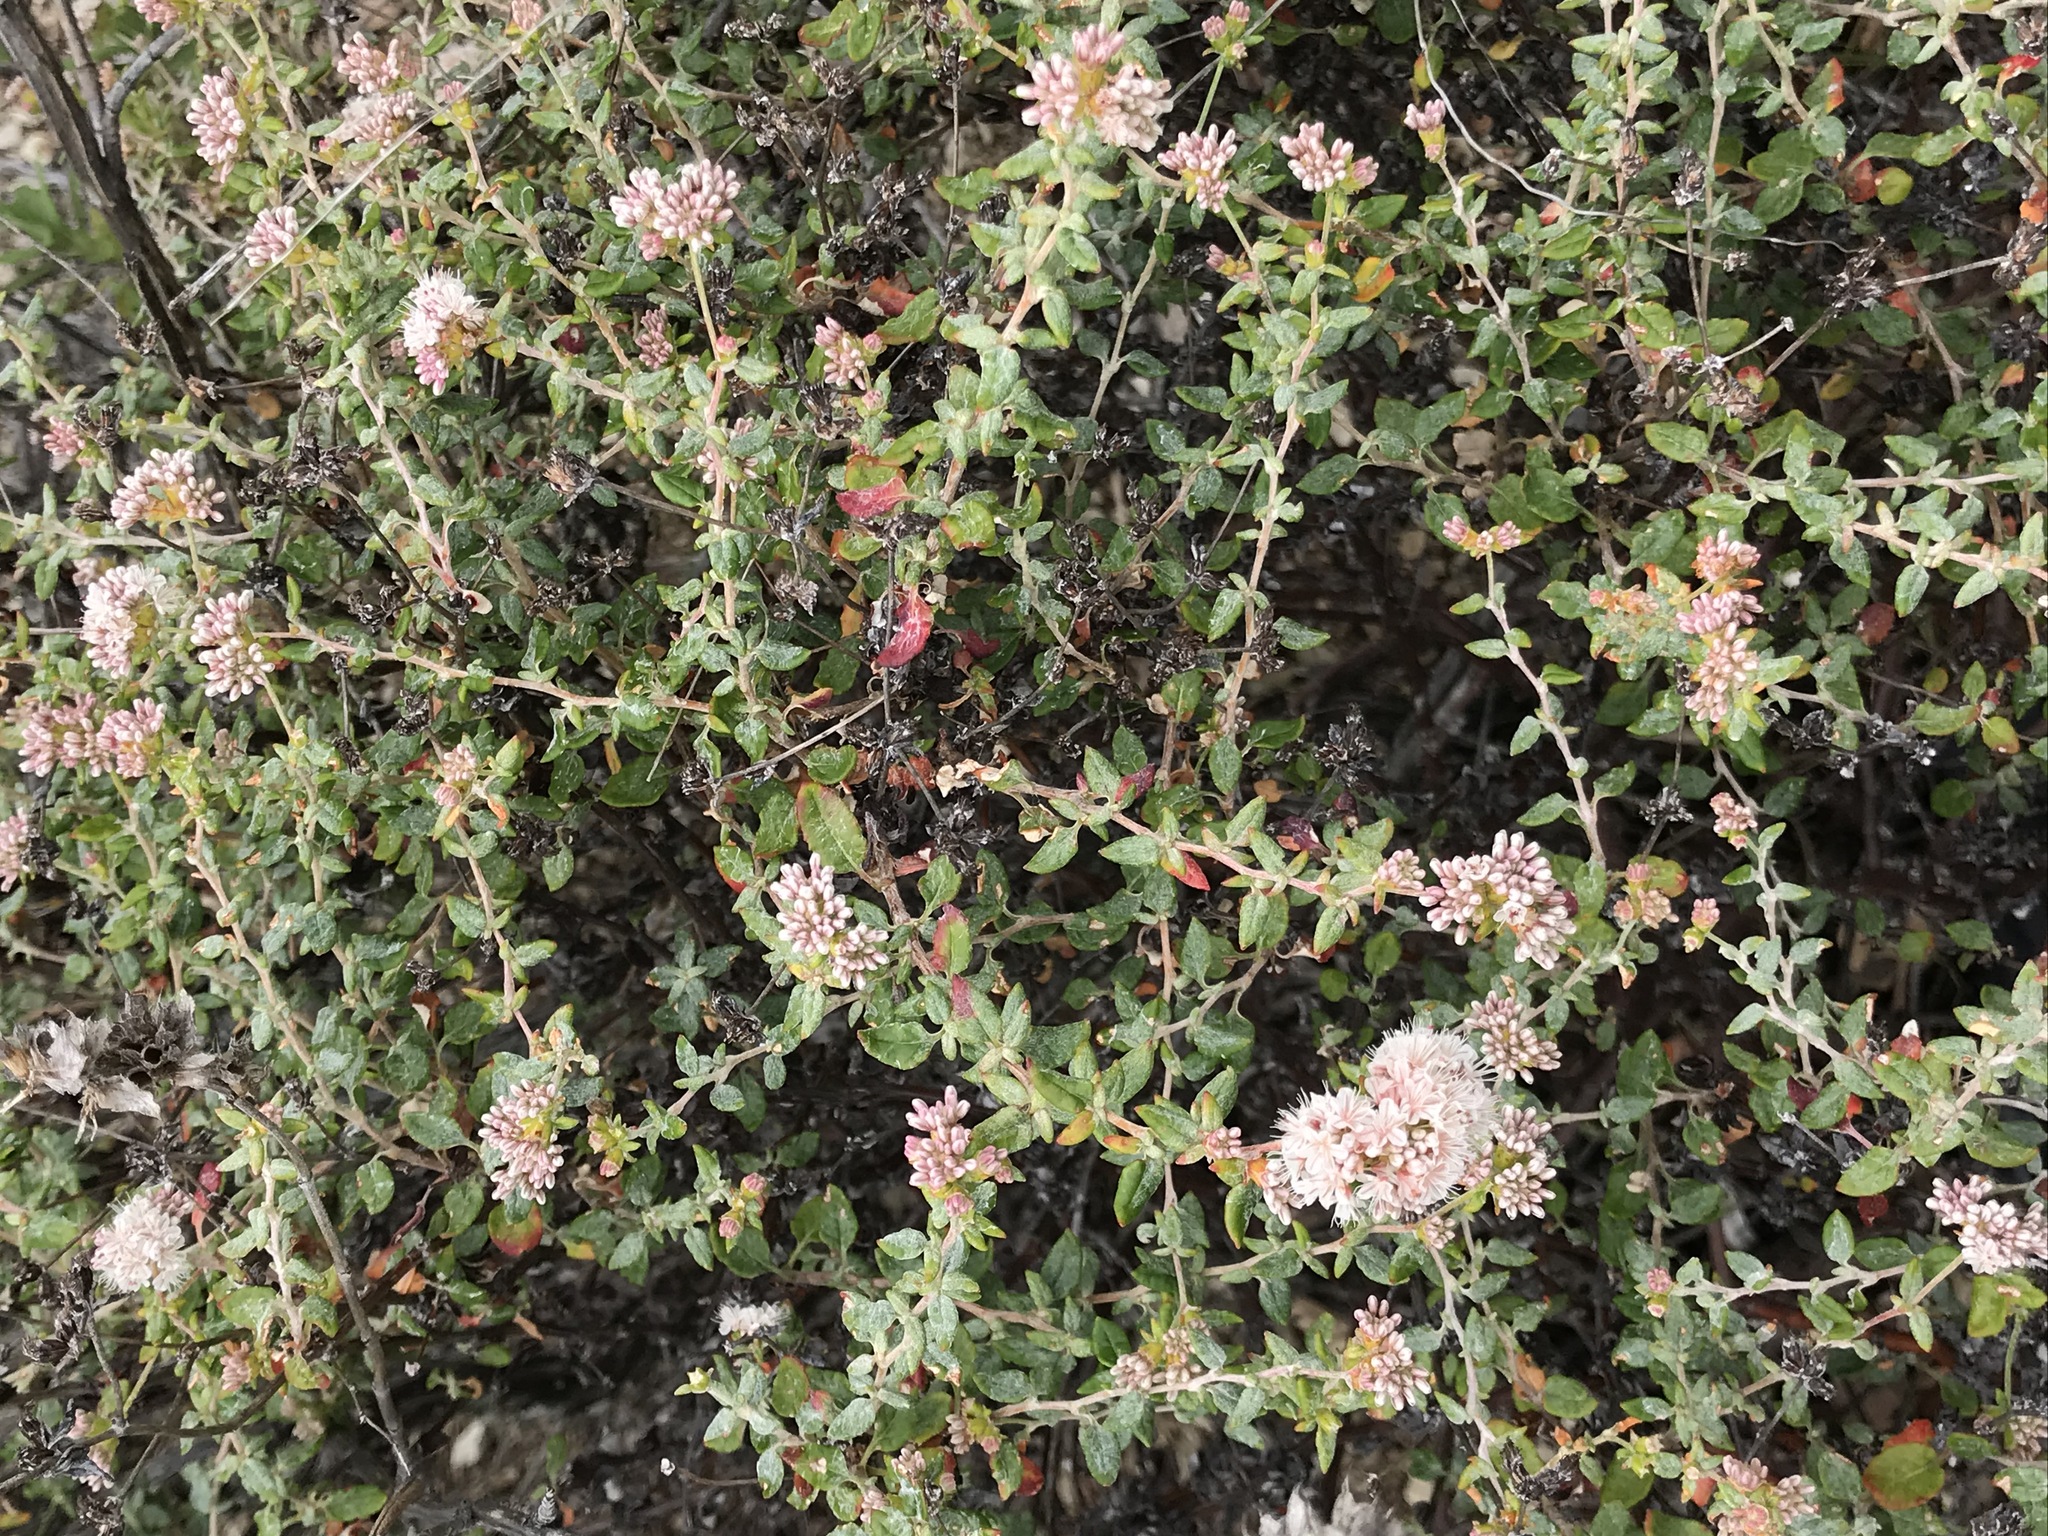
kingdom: Plantae
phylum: Tracheophyta
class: Magnoliopsida
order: Caryophyllales
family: Polygonaceae
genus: Eriogonum
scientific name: Eriogonum parvifolium
